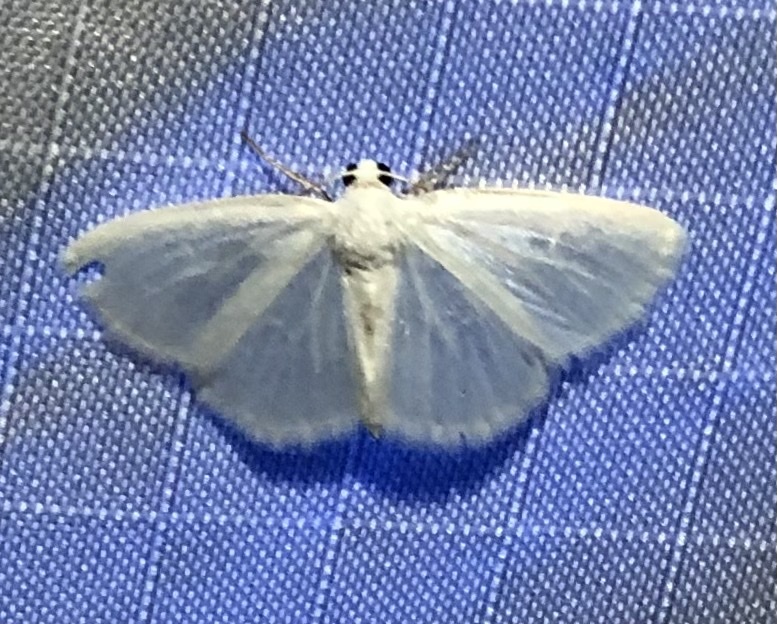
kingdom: Animalia
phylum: Arthropoda
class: Insecta
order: Lepidoptera
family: Geometridae
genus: Lomographa
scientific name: Lomographa vestaliata
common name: White spring moth
